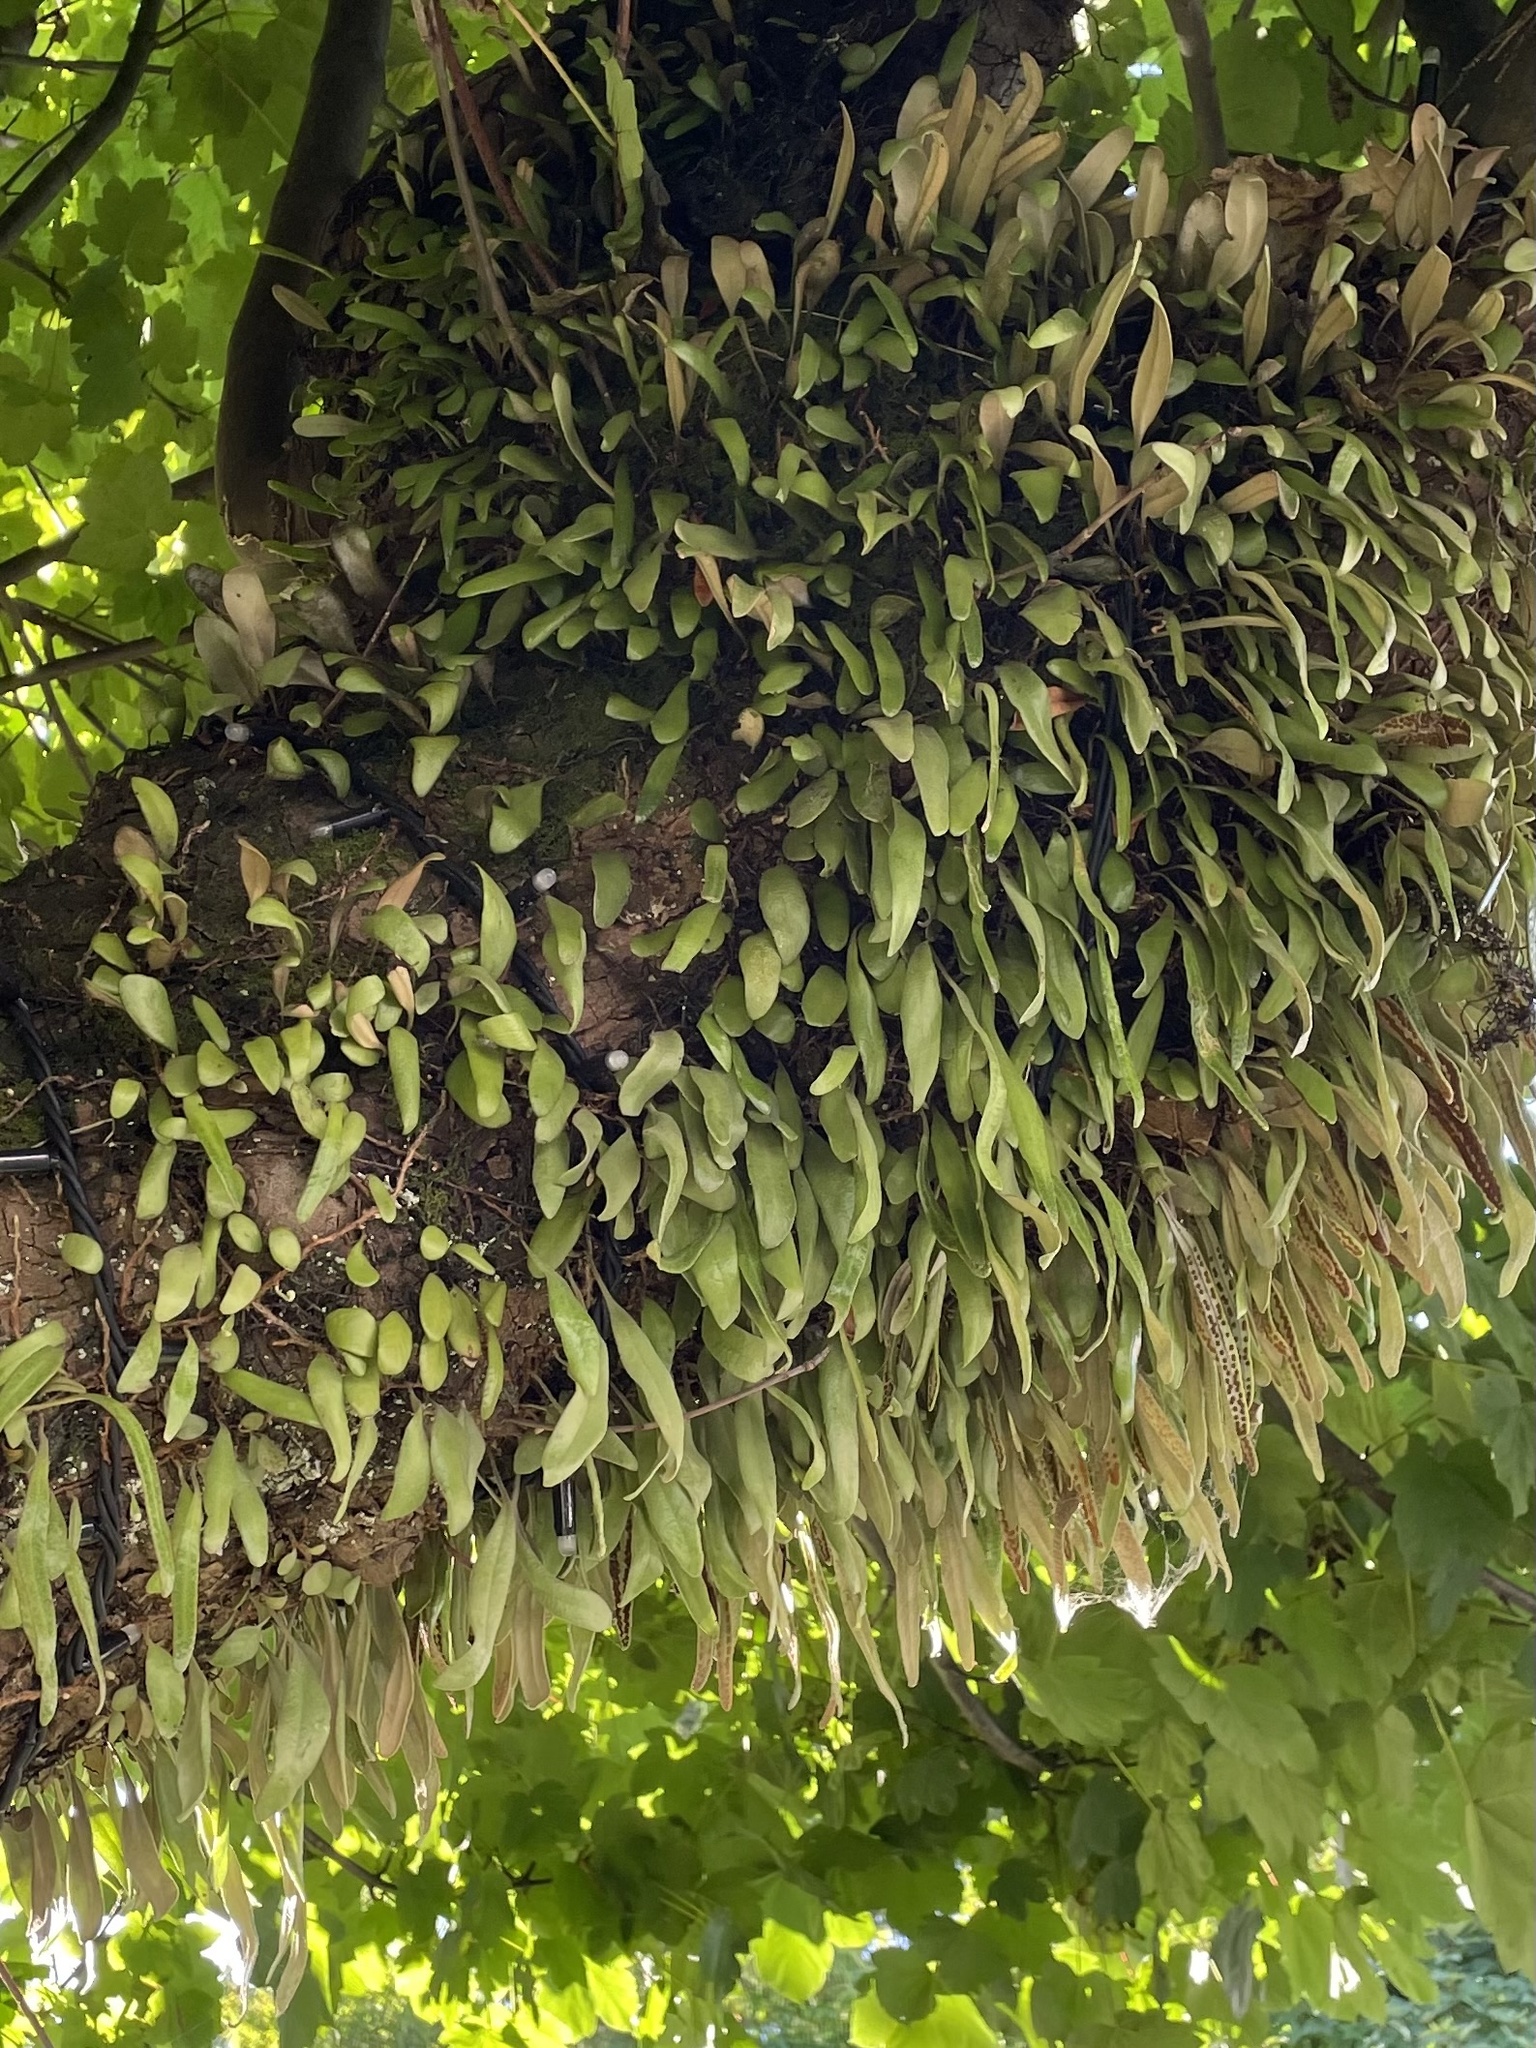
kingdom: Plantae
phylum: Tracheophyta
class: Polypodiopsida
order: Polypodiales
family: Polypodiaceae
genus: Pyrrosia
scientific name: Pyrrosia eleagnifolia
